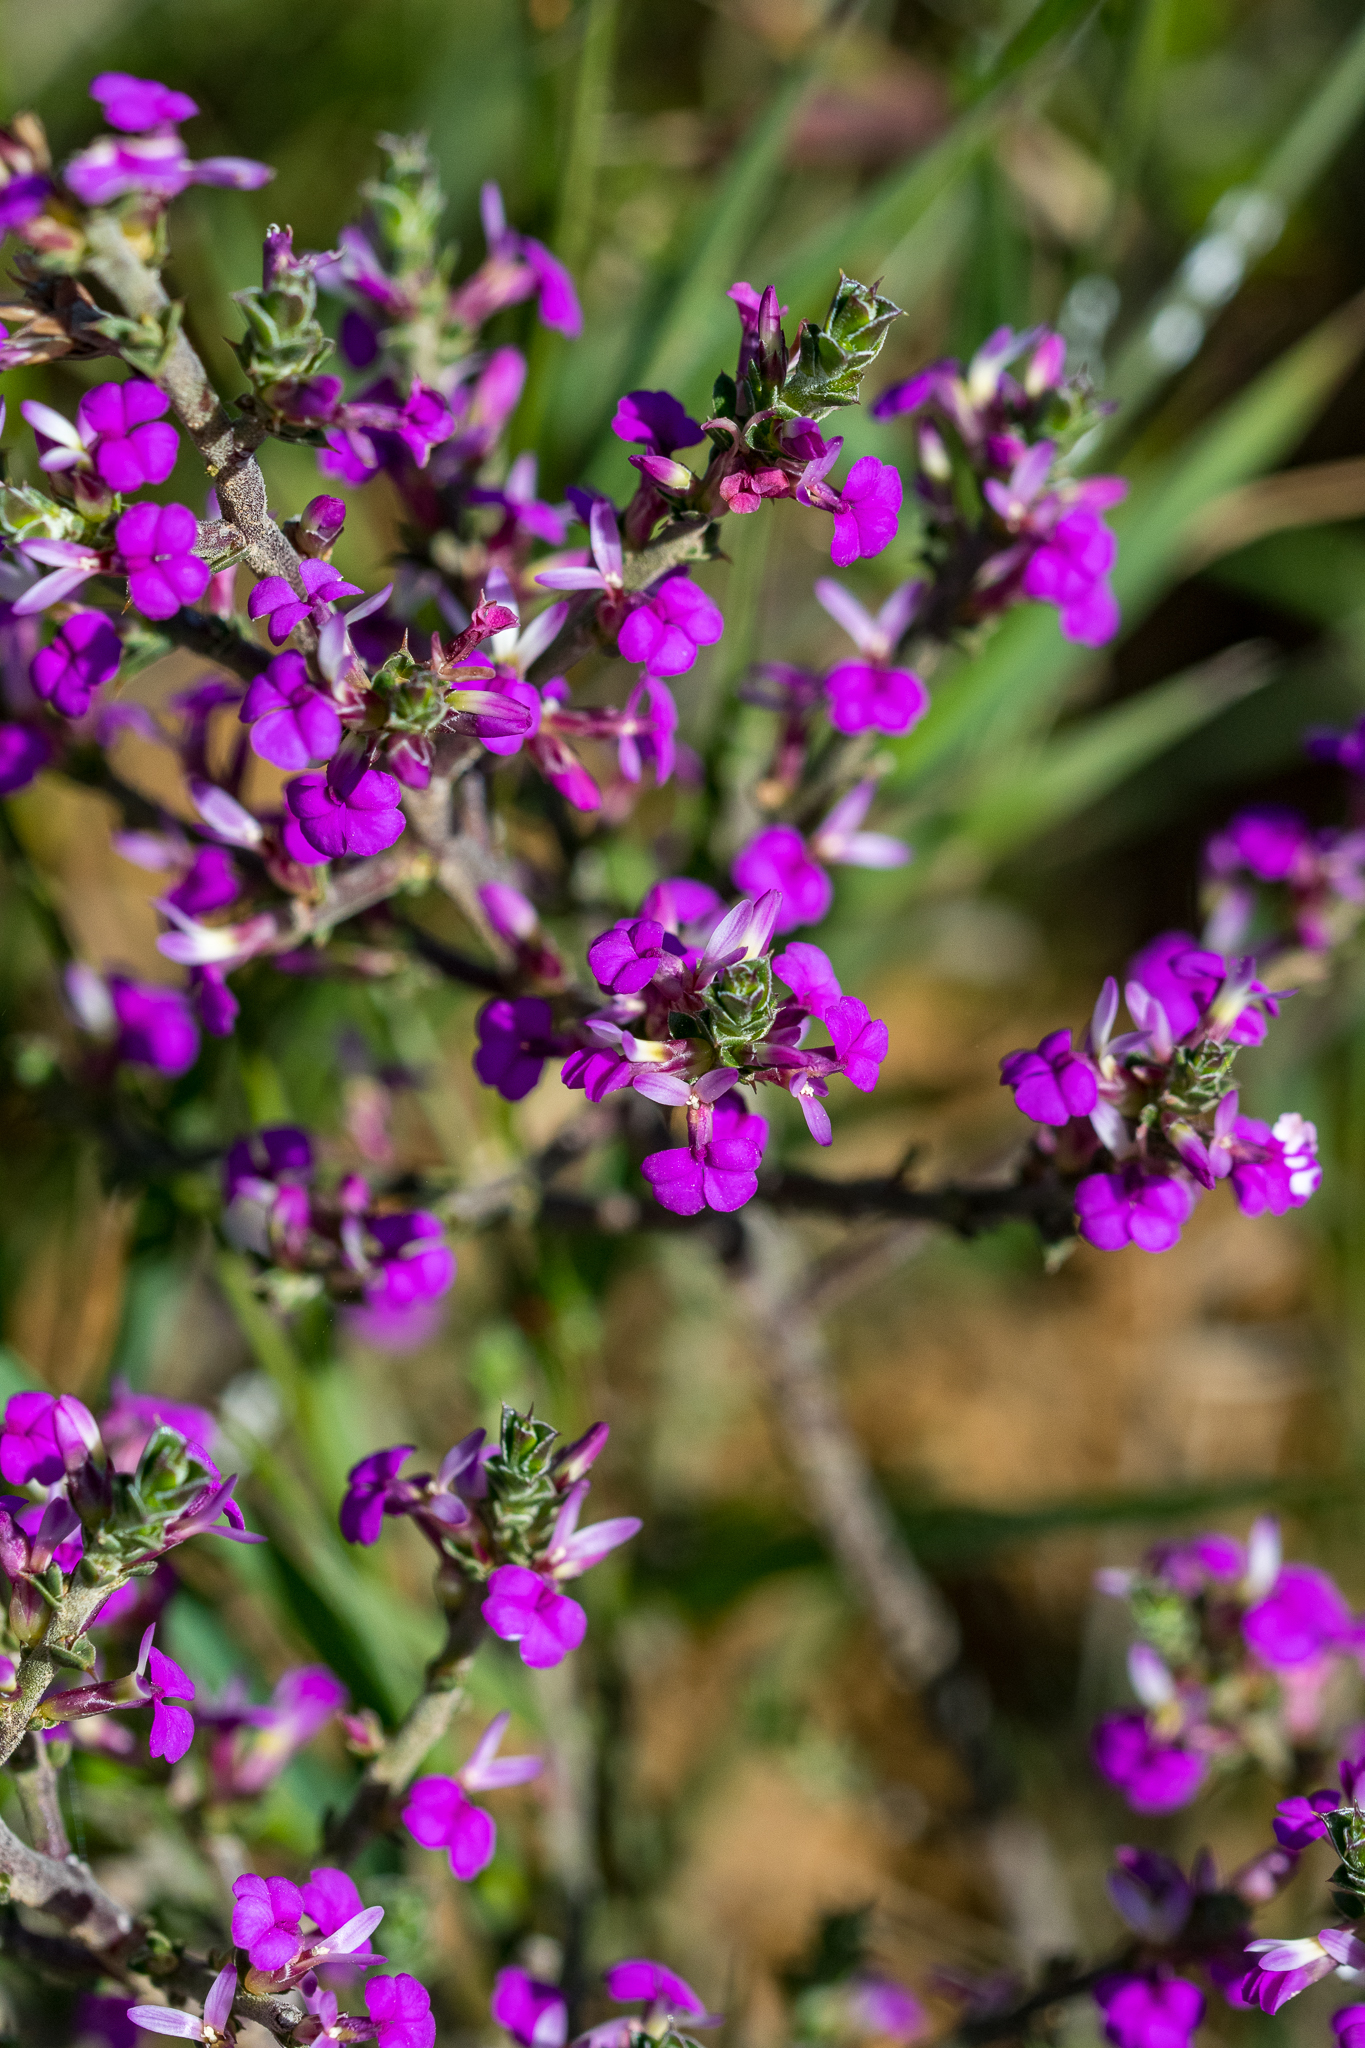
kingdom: Plantae
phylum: Tracheophyta
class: Magnoliopsida
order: Fabales
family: Polygalaceae
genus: Muraltia
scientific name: Muraltia macropetala
